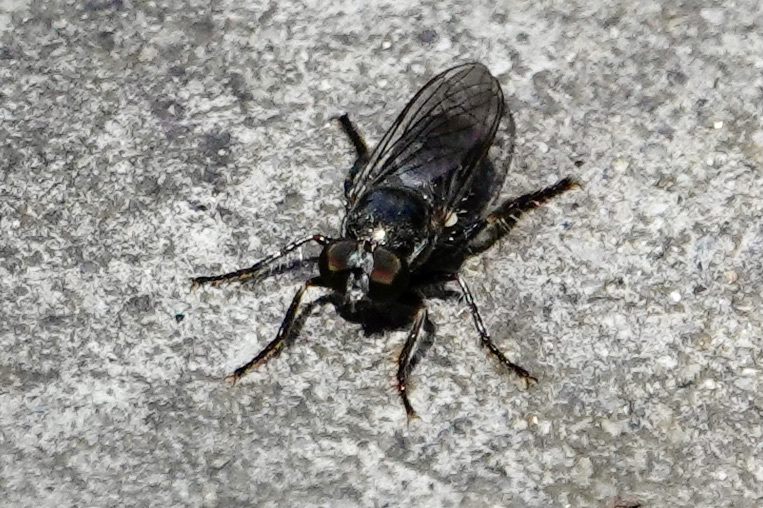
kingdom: Animalia
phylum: Arthropoda
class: Insecta
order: Diptera
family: Asilidae
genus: Atomosia
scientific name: Atomosia puella
